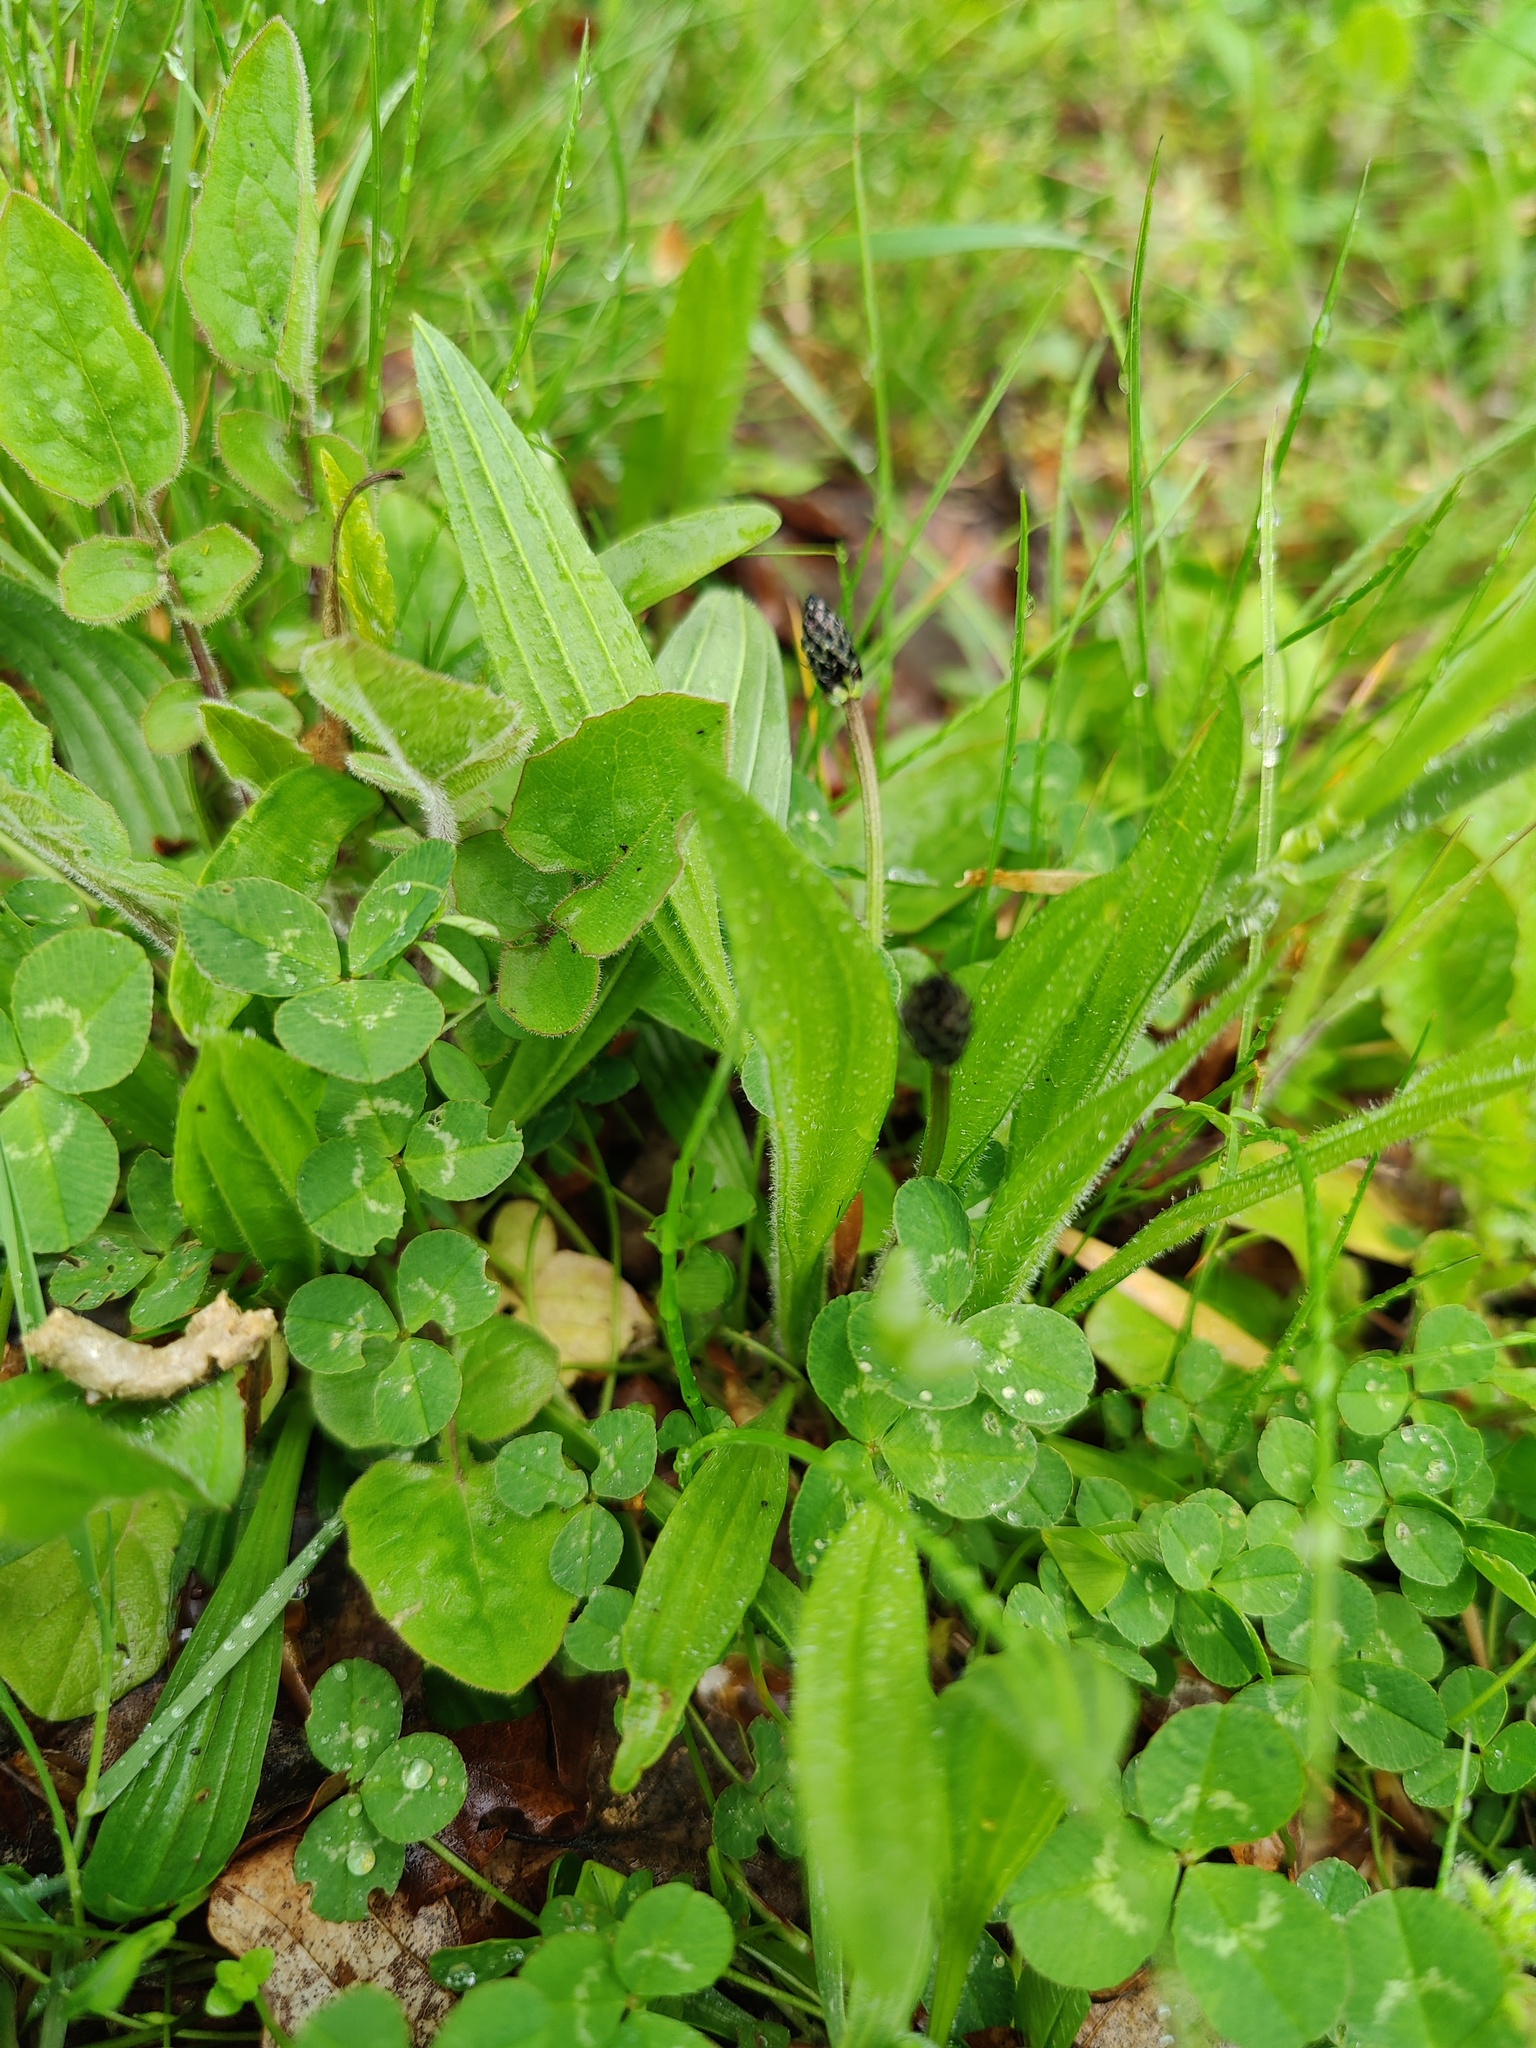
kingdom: Plantae
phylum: Tracheophyta
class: Magnoliopsida
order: Lamiales
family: Plantaginaceae
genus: Plantago
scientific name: Plantago lanceolata
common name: Ribwort plantain
